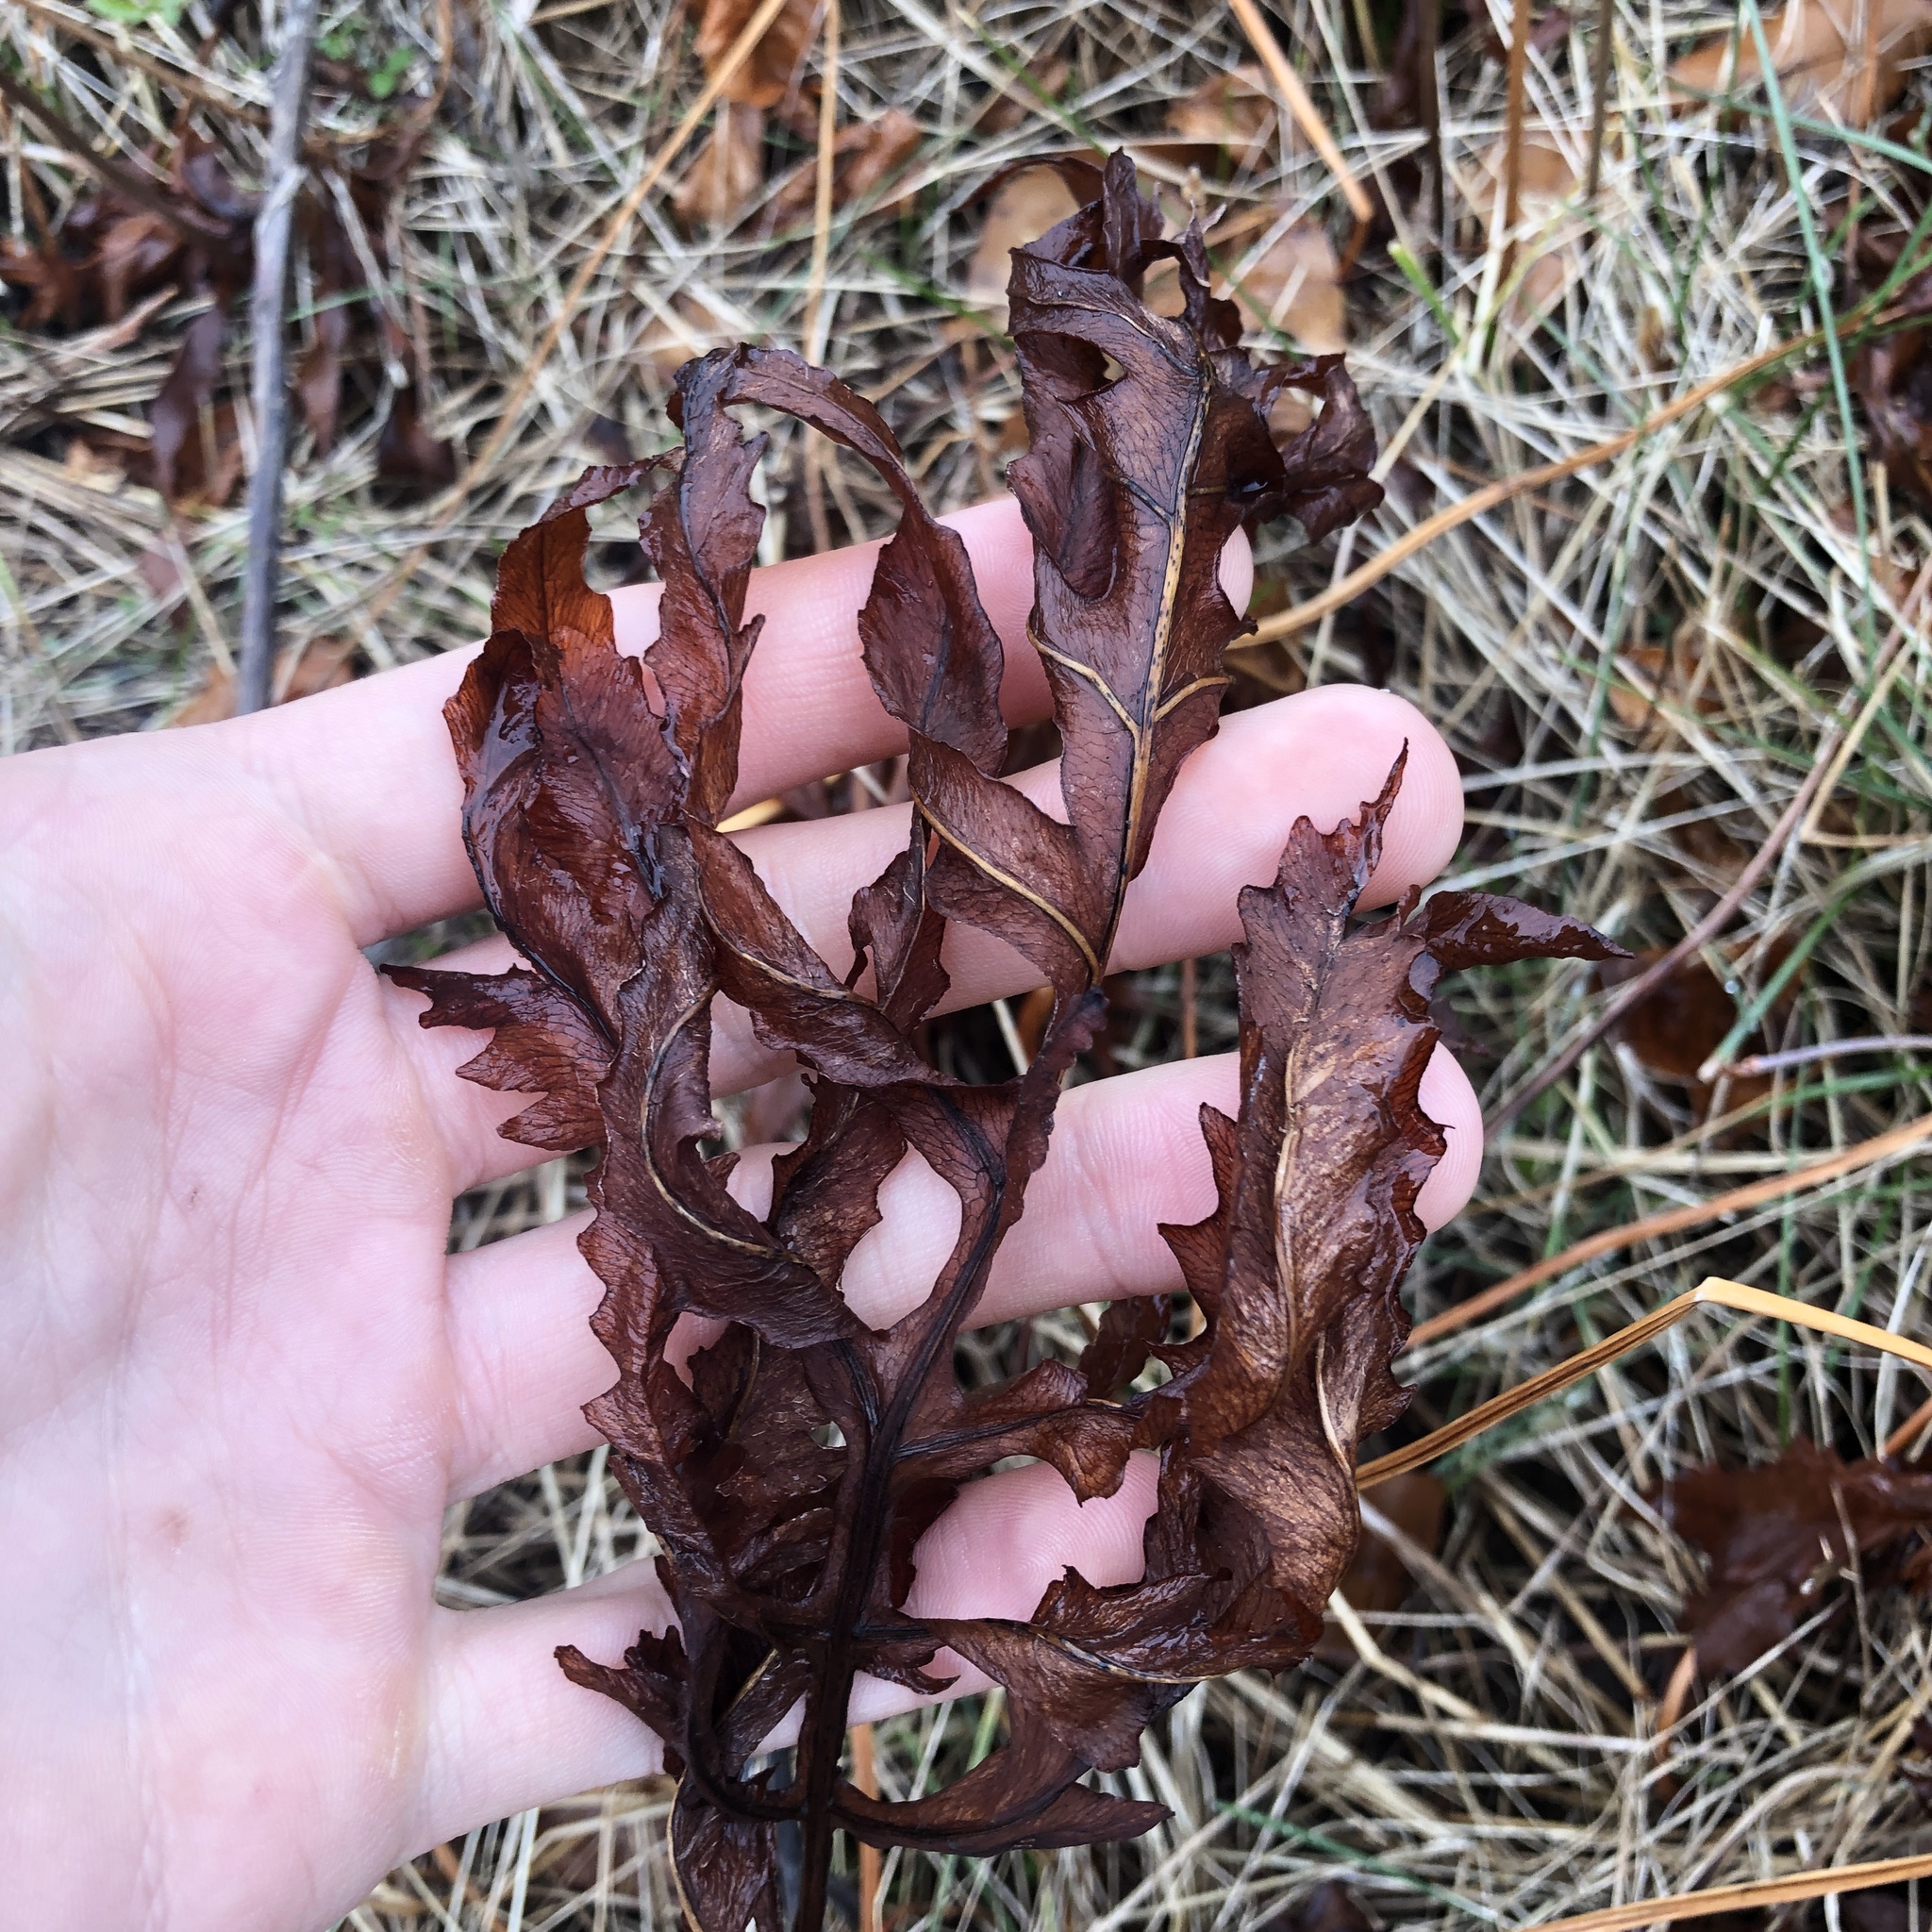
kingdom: Plantae
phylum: Tracheophyta
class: Polypodiopsida
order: Polypodiales
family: Onocleaceae
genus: Onoclea
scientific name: Onoclea sensibilis
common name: Sensitive fern
